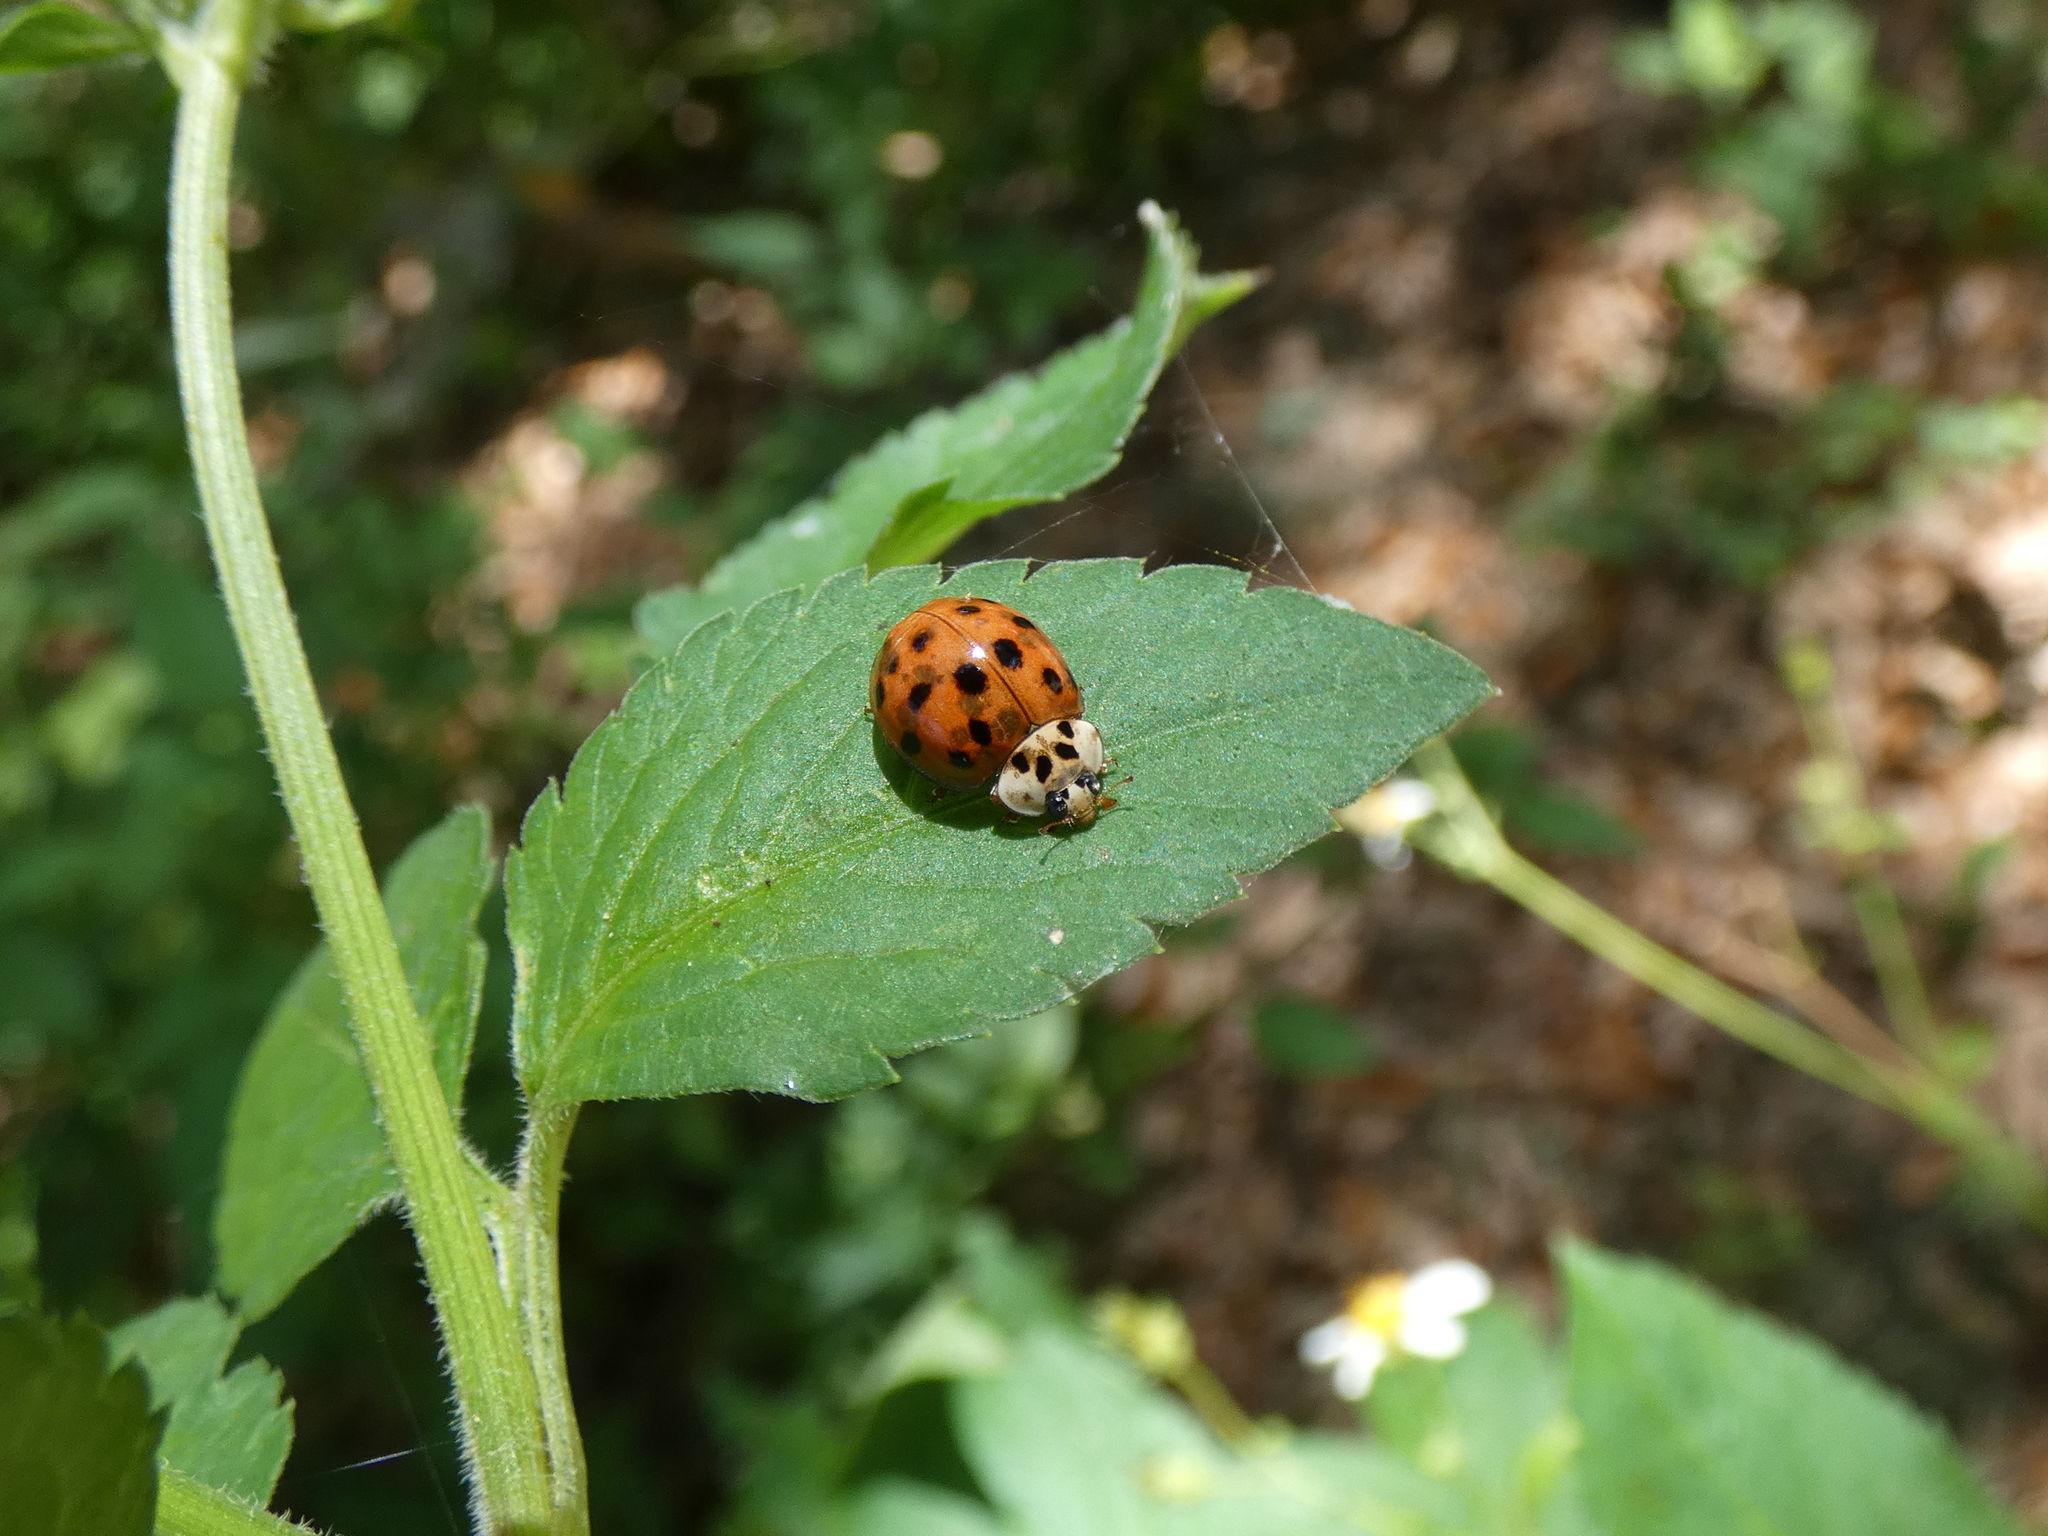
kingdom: Animalia
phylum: Arthropoda
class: Insecta
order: Coleoptera
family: Coccinellidae
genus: Harmonia
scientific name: Harmonia axyridis
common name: Harlequin ladybird
